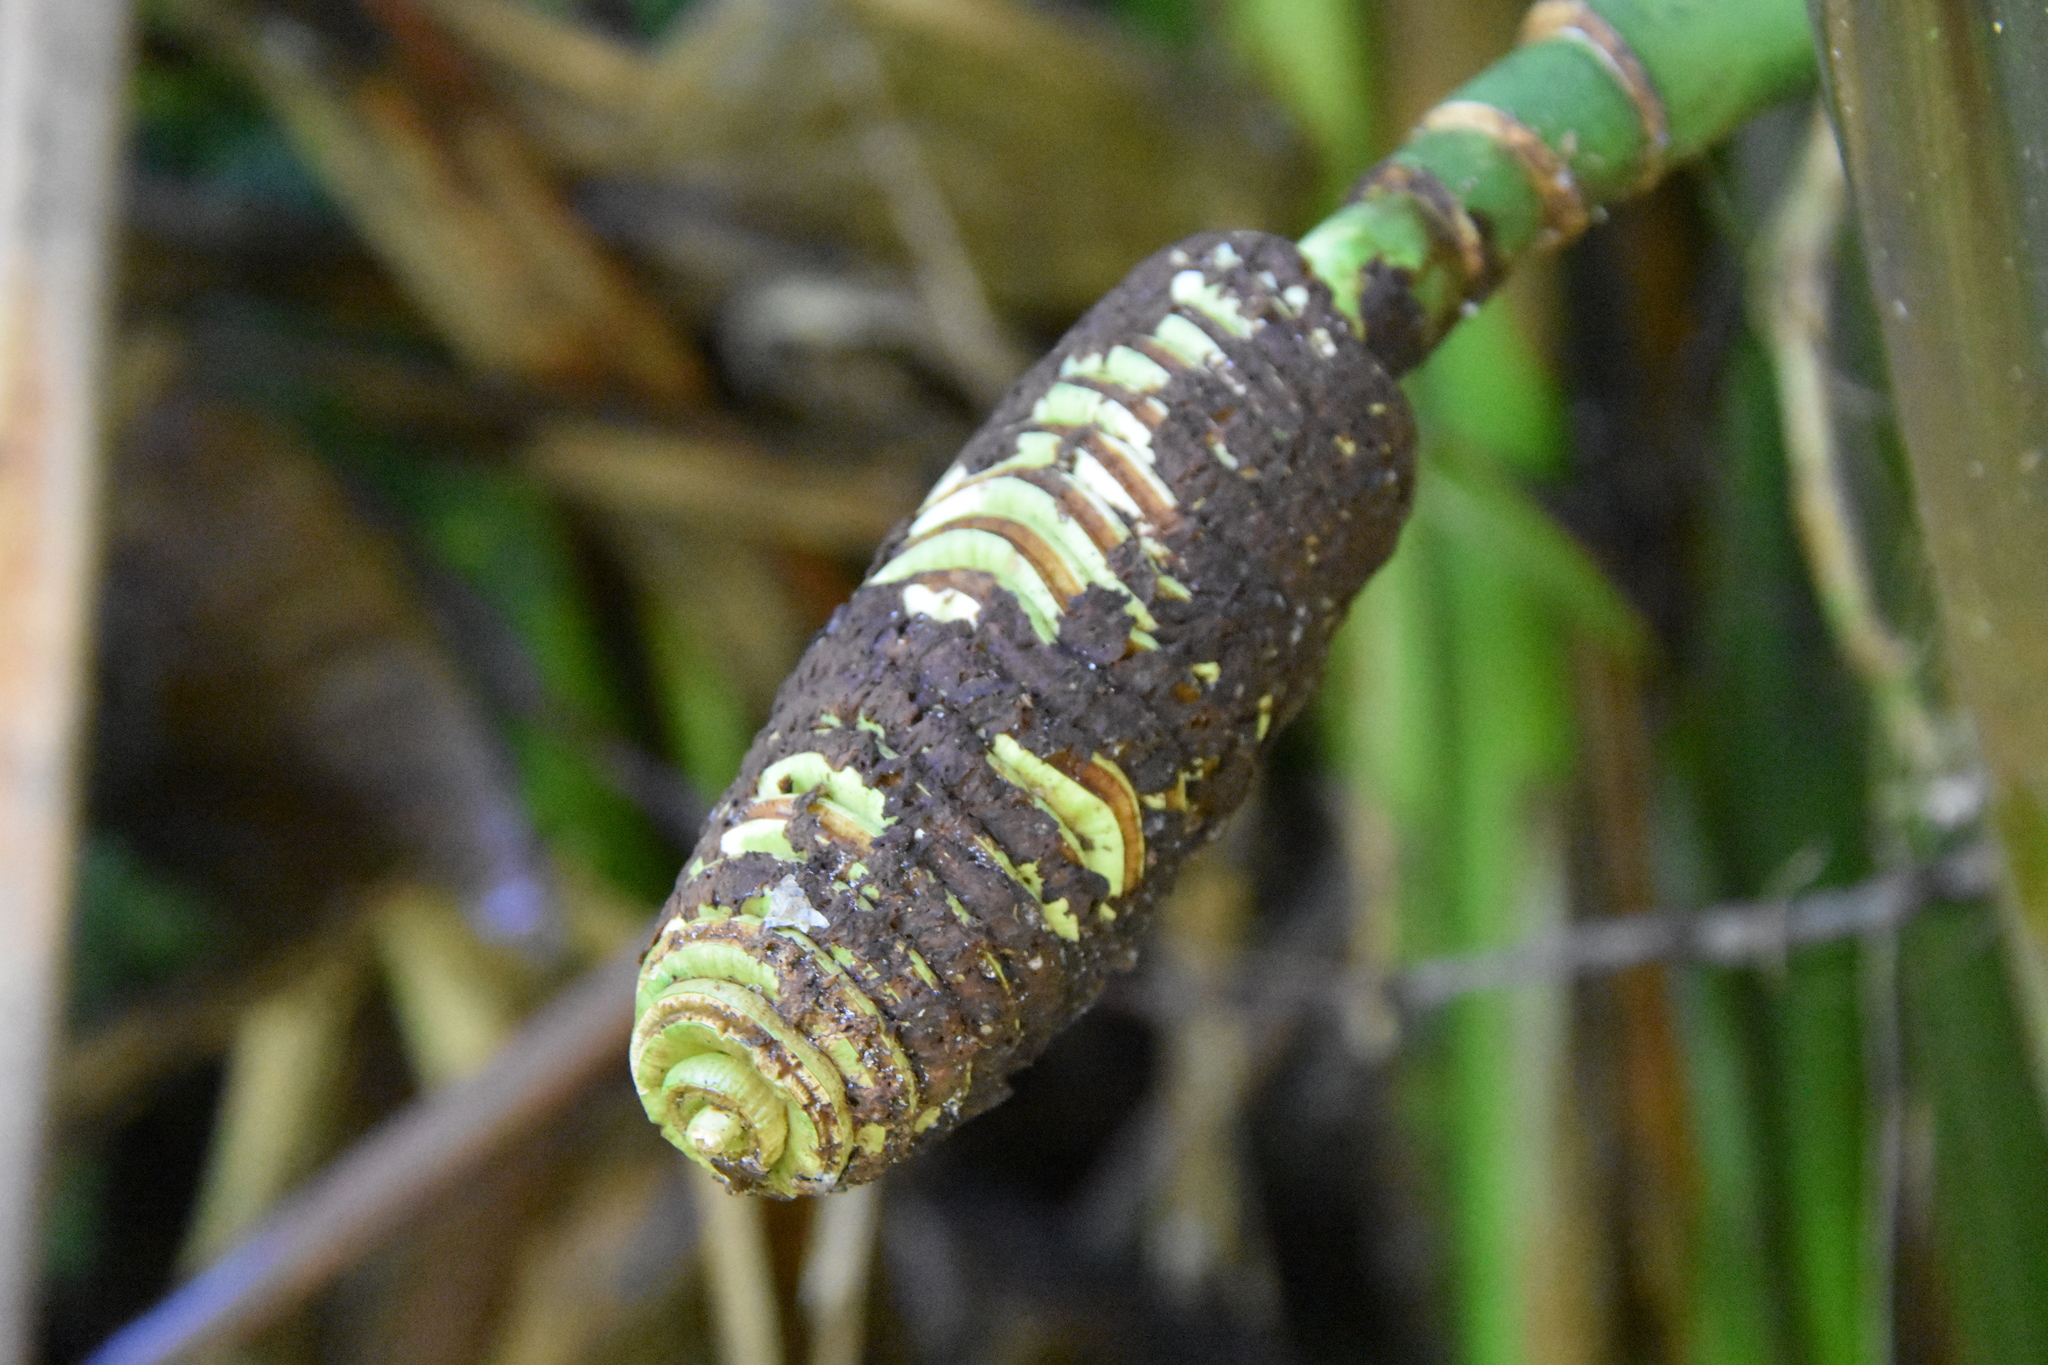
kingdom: Plantae
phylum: Tracheophyta
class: Liliopsida
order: Pandanales
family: Cyclanthaceae
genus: Cyclanthus
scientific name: Cyclanthus bipartitus
